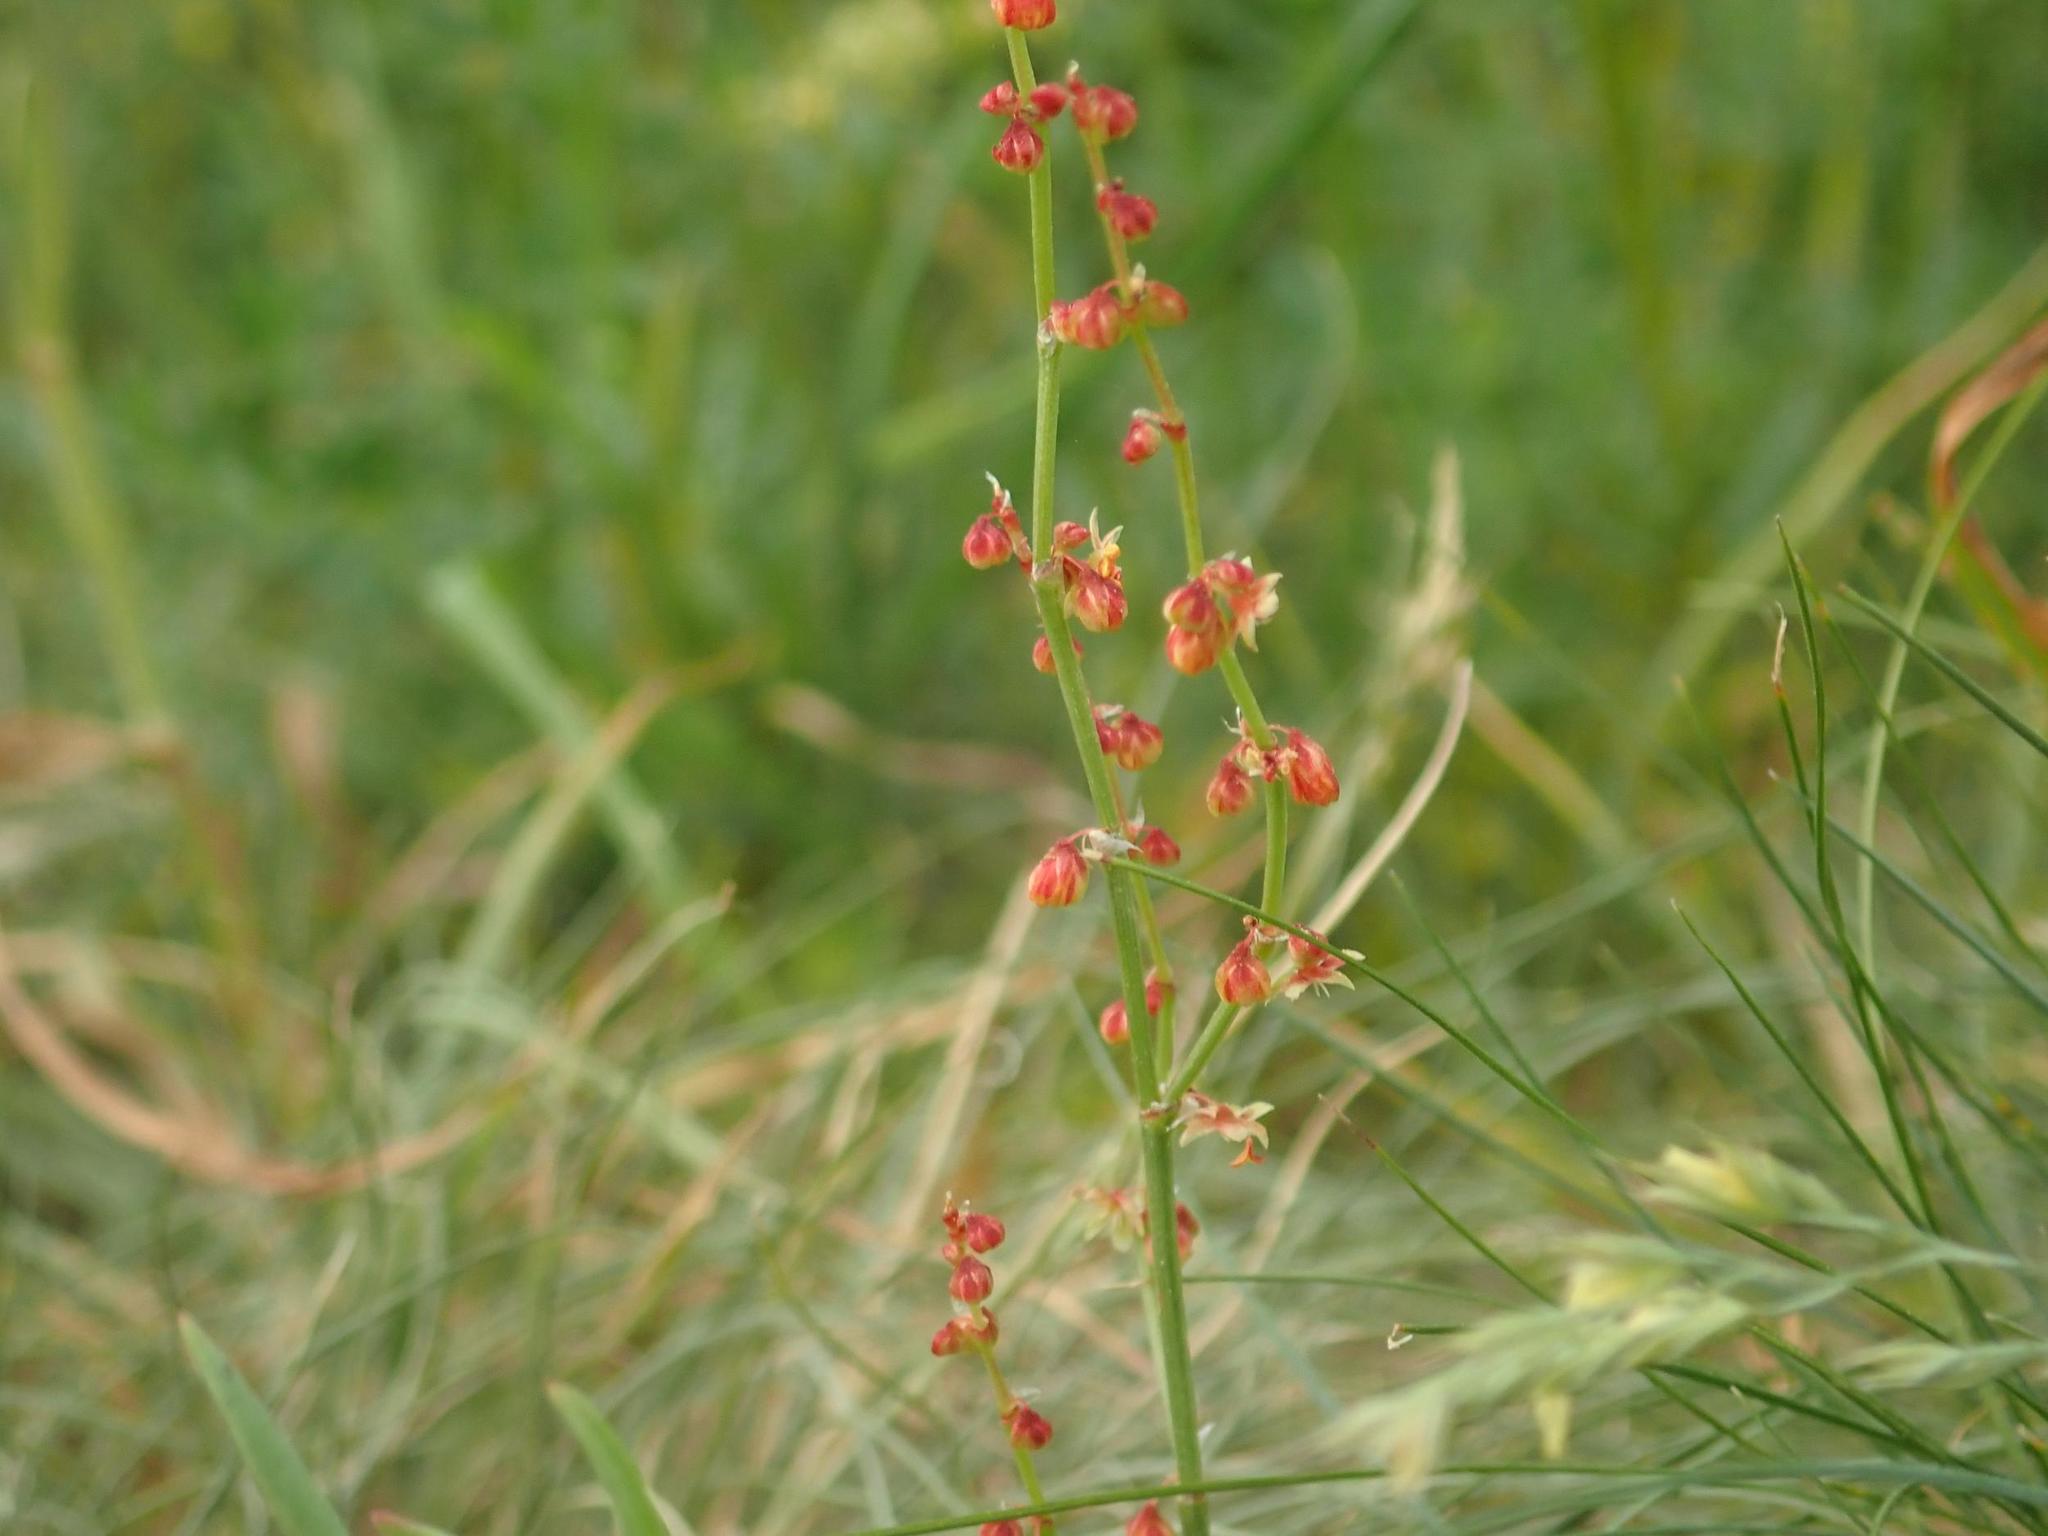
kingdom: Plantae
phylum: Tracheophyta
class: Magnoliopsida
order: Caryophyllales
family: Polygonaceae
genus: Rumex
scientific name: Rumex acetosella
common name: Common sheep sorrel
